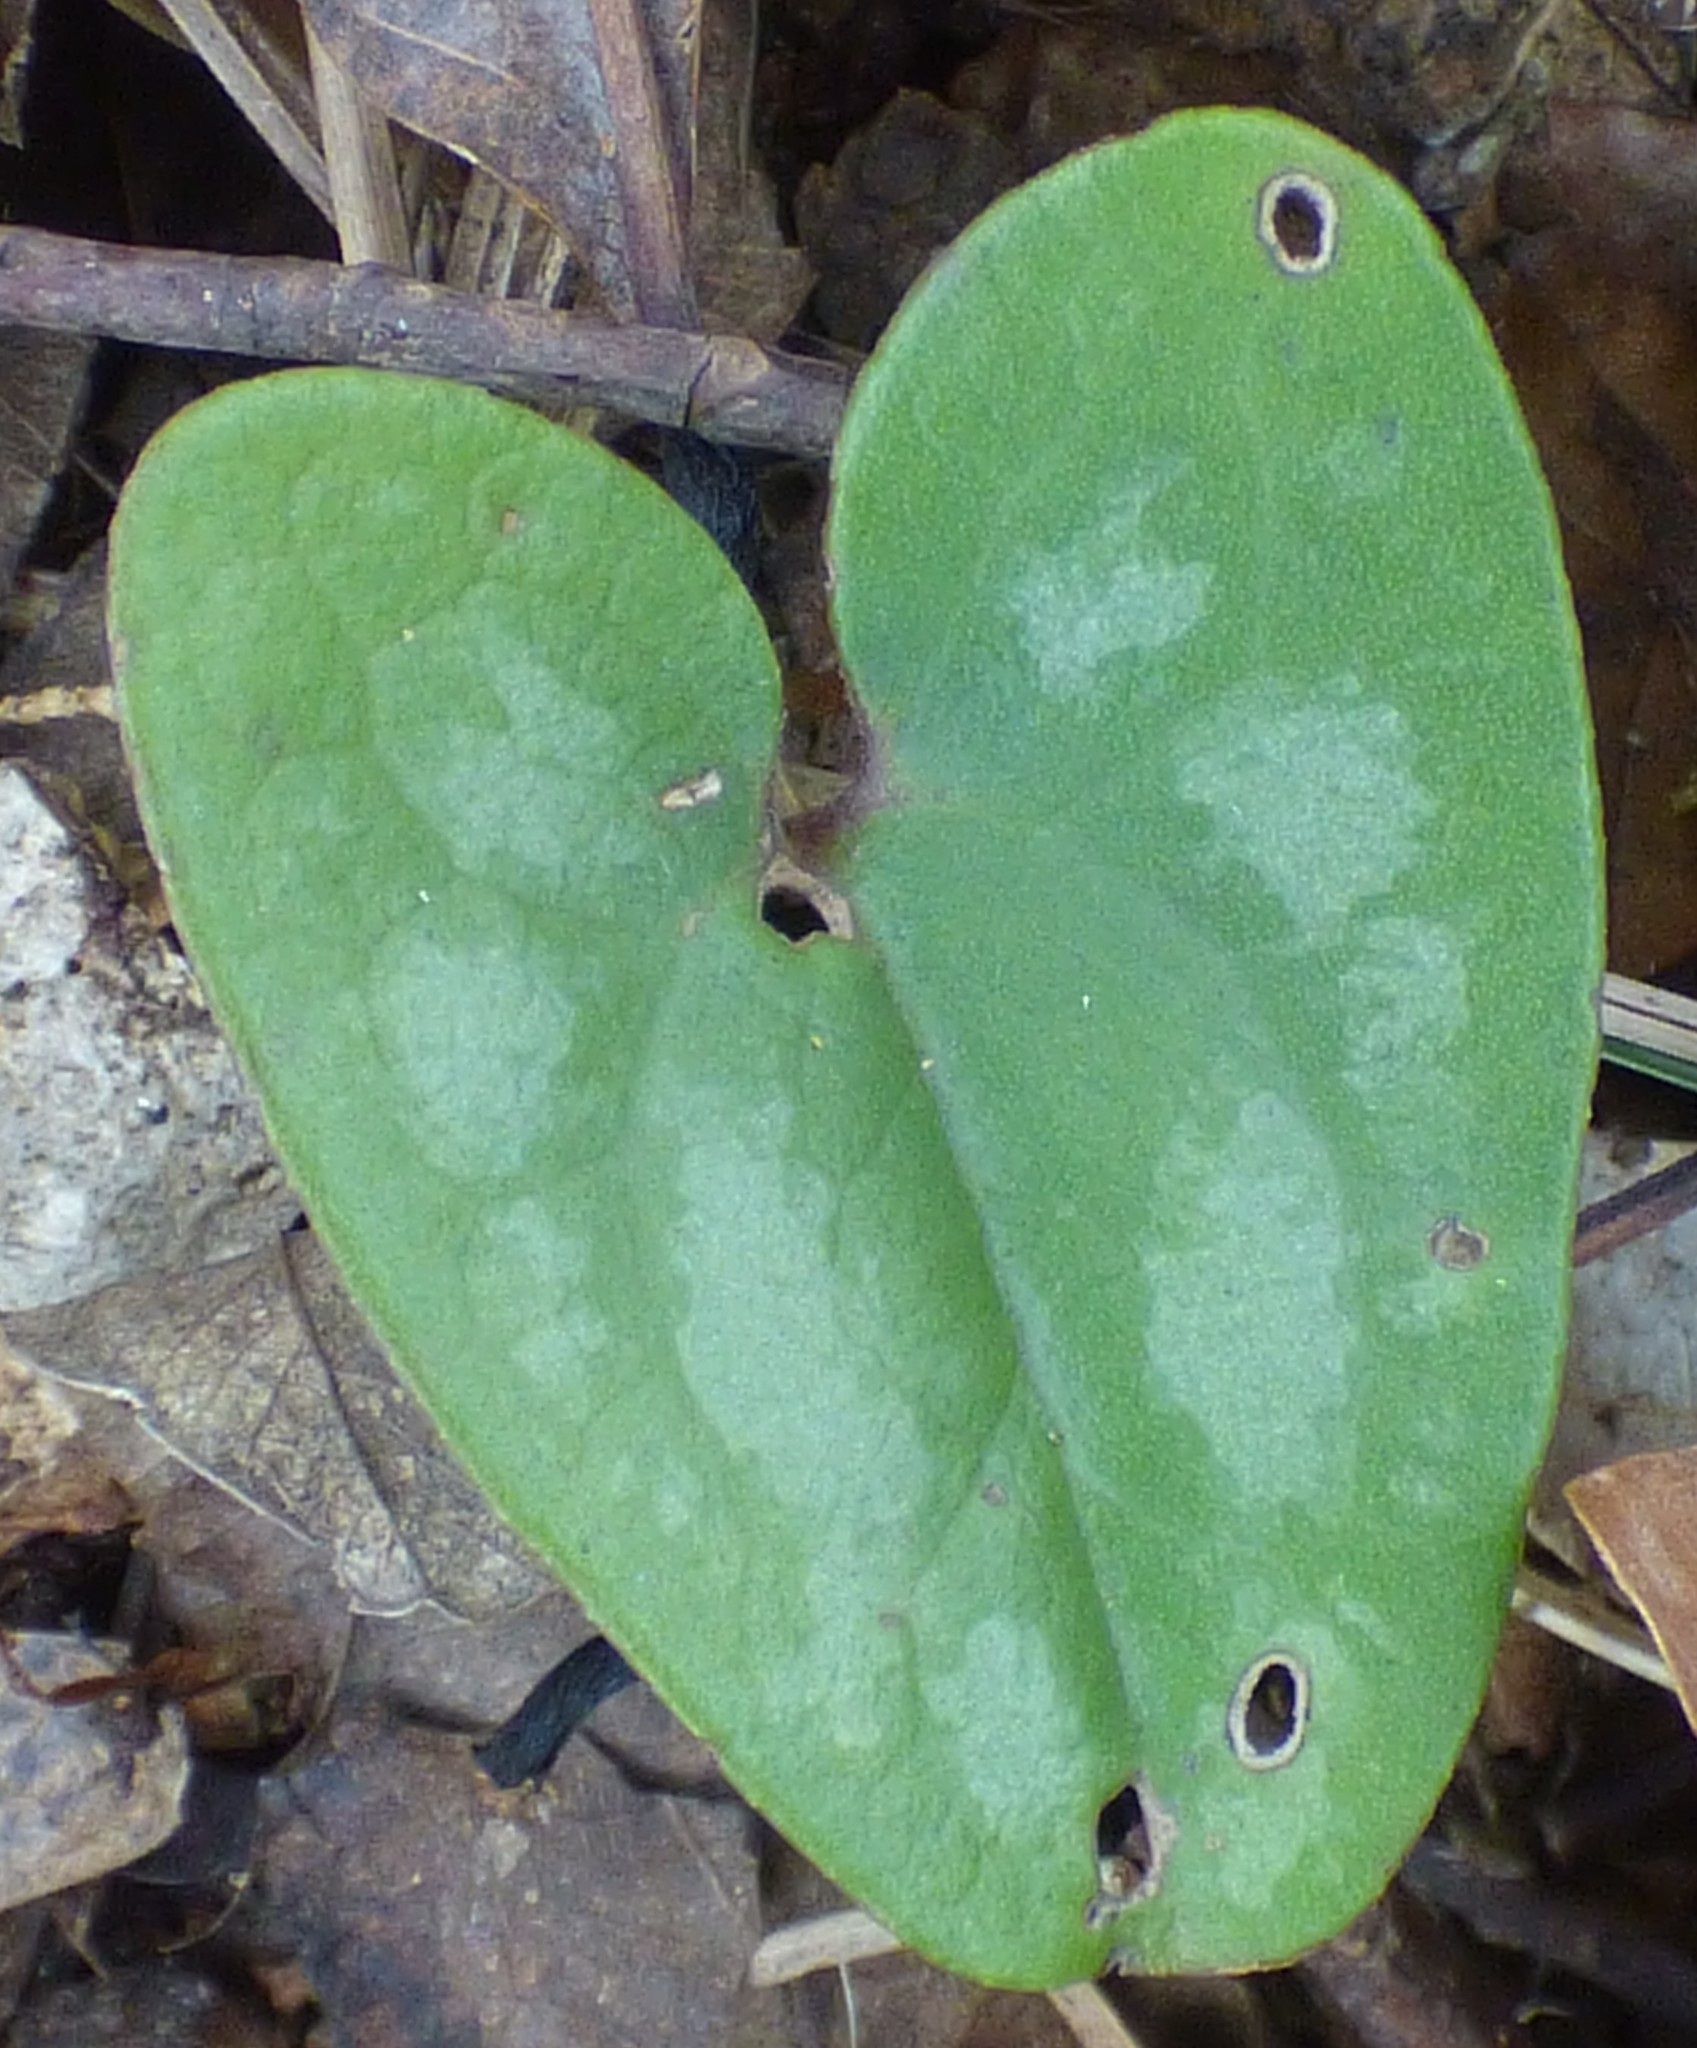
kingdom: Plantae
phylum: Tracheophyta
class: Magnoliopsida
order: Piperales
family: Aristolochiaceae
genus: Hexastylis
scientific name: Hexastylis arifolia
